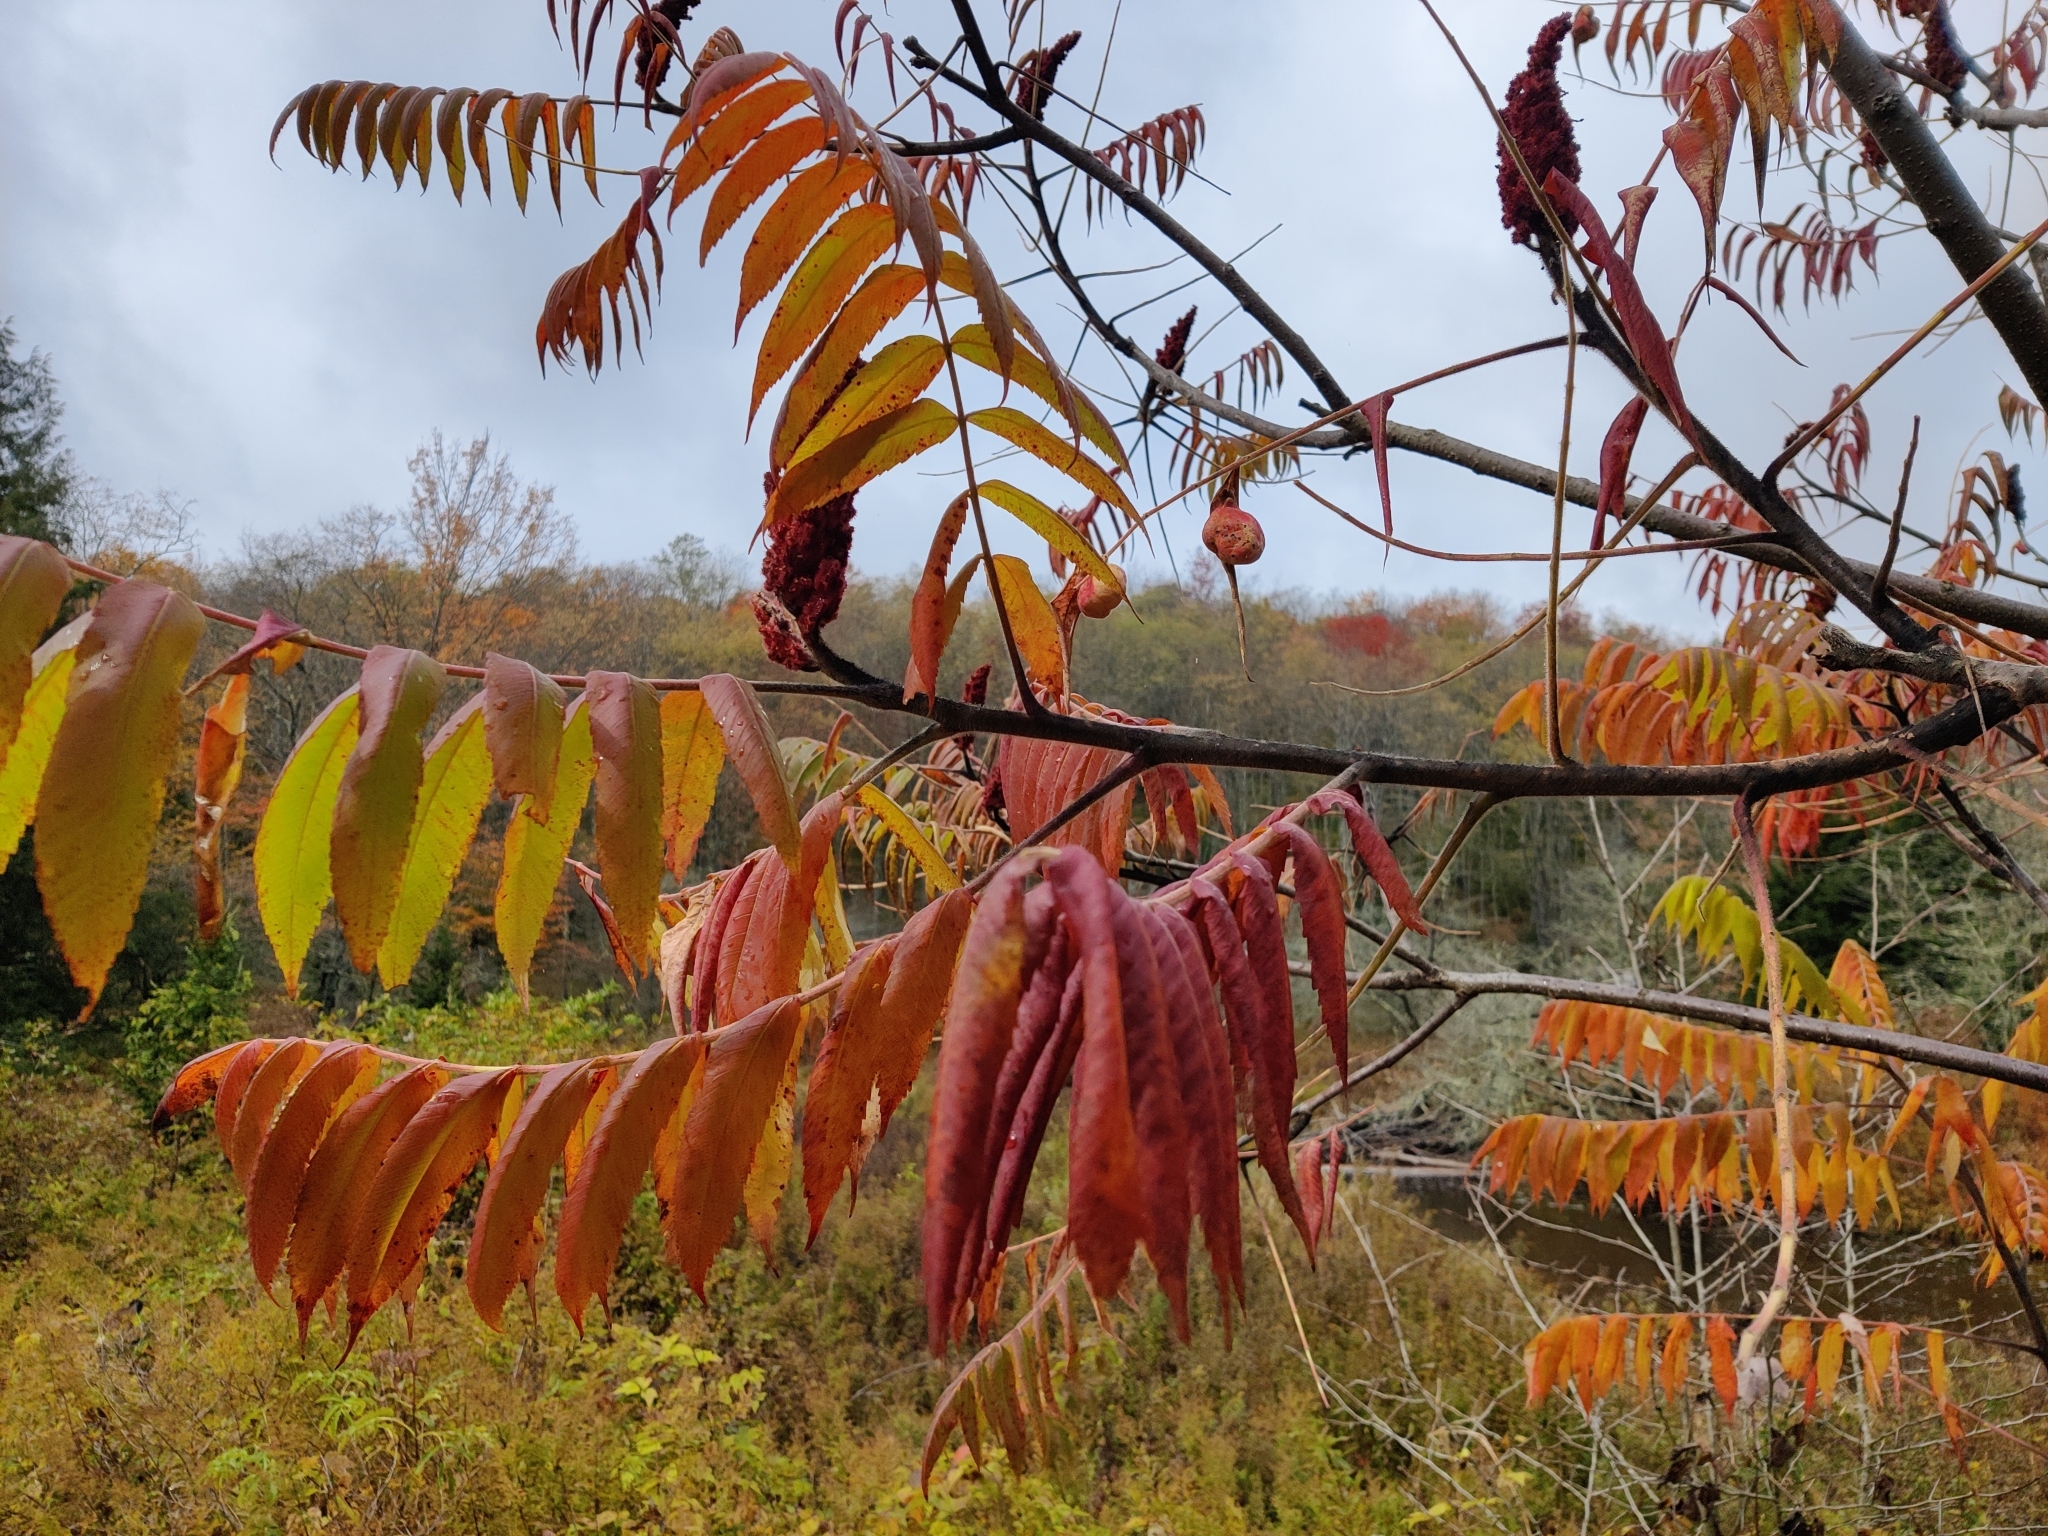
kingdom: Animalia
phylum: Arthropoda
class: Insecta
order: Hemiptera
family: Aphididae
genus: Melaphis
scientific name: Melaphis rhois
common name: Sumac gall aphid
